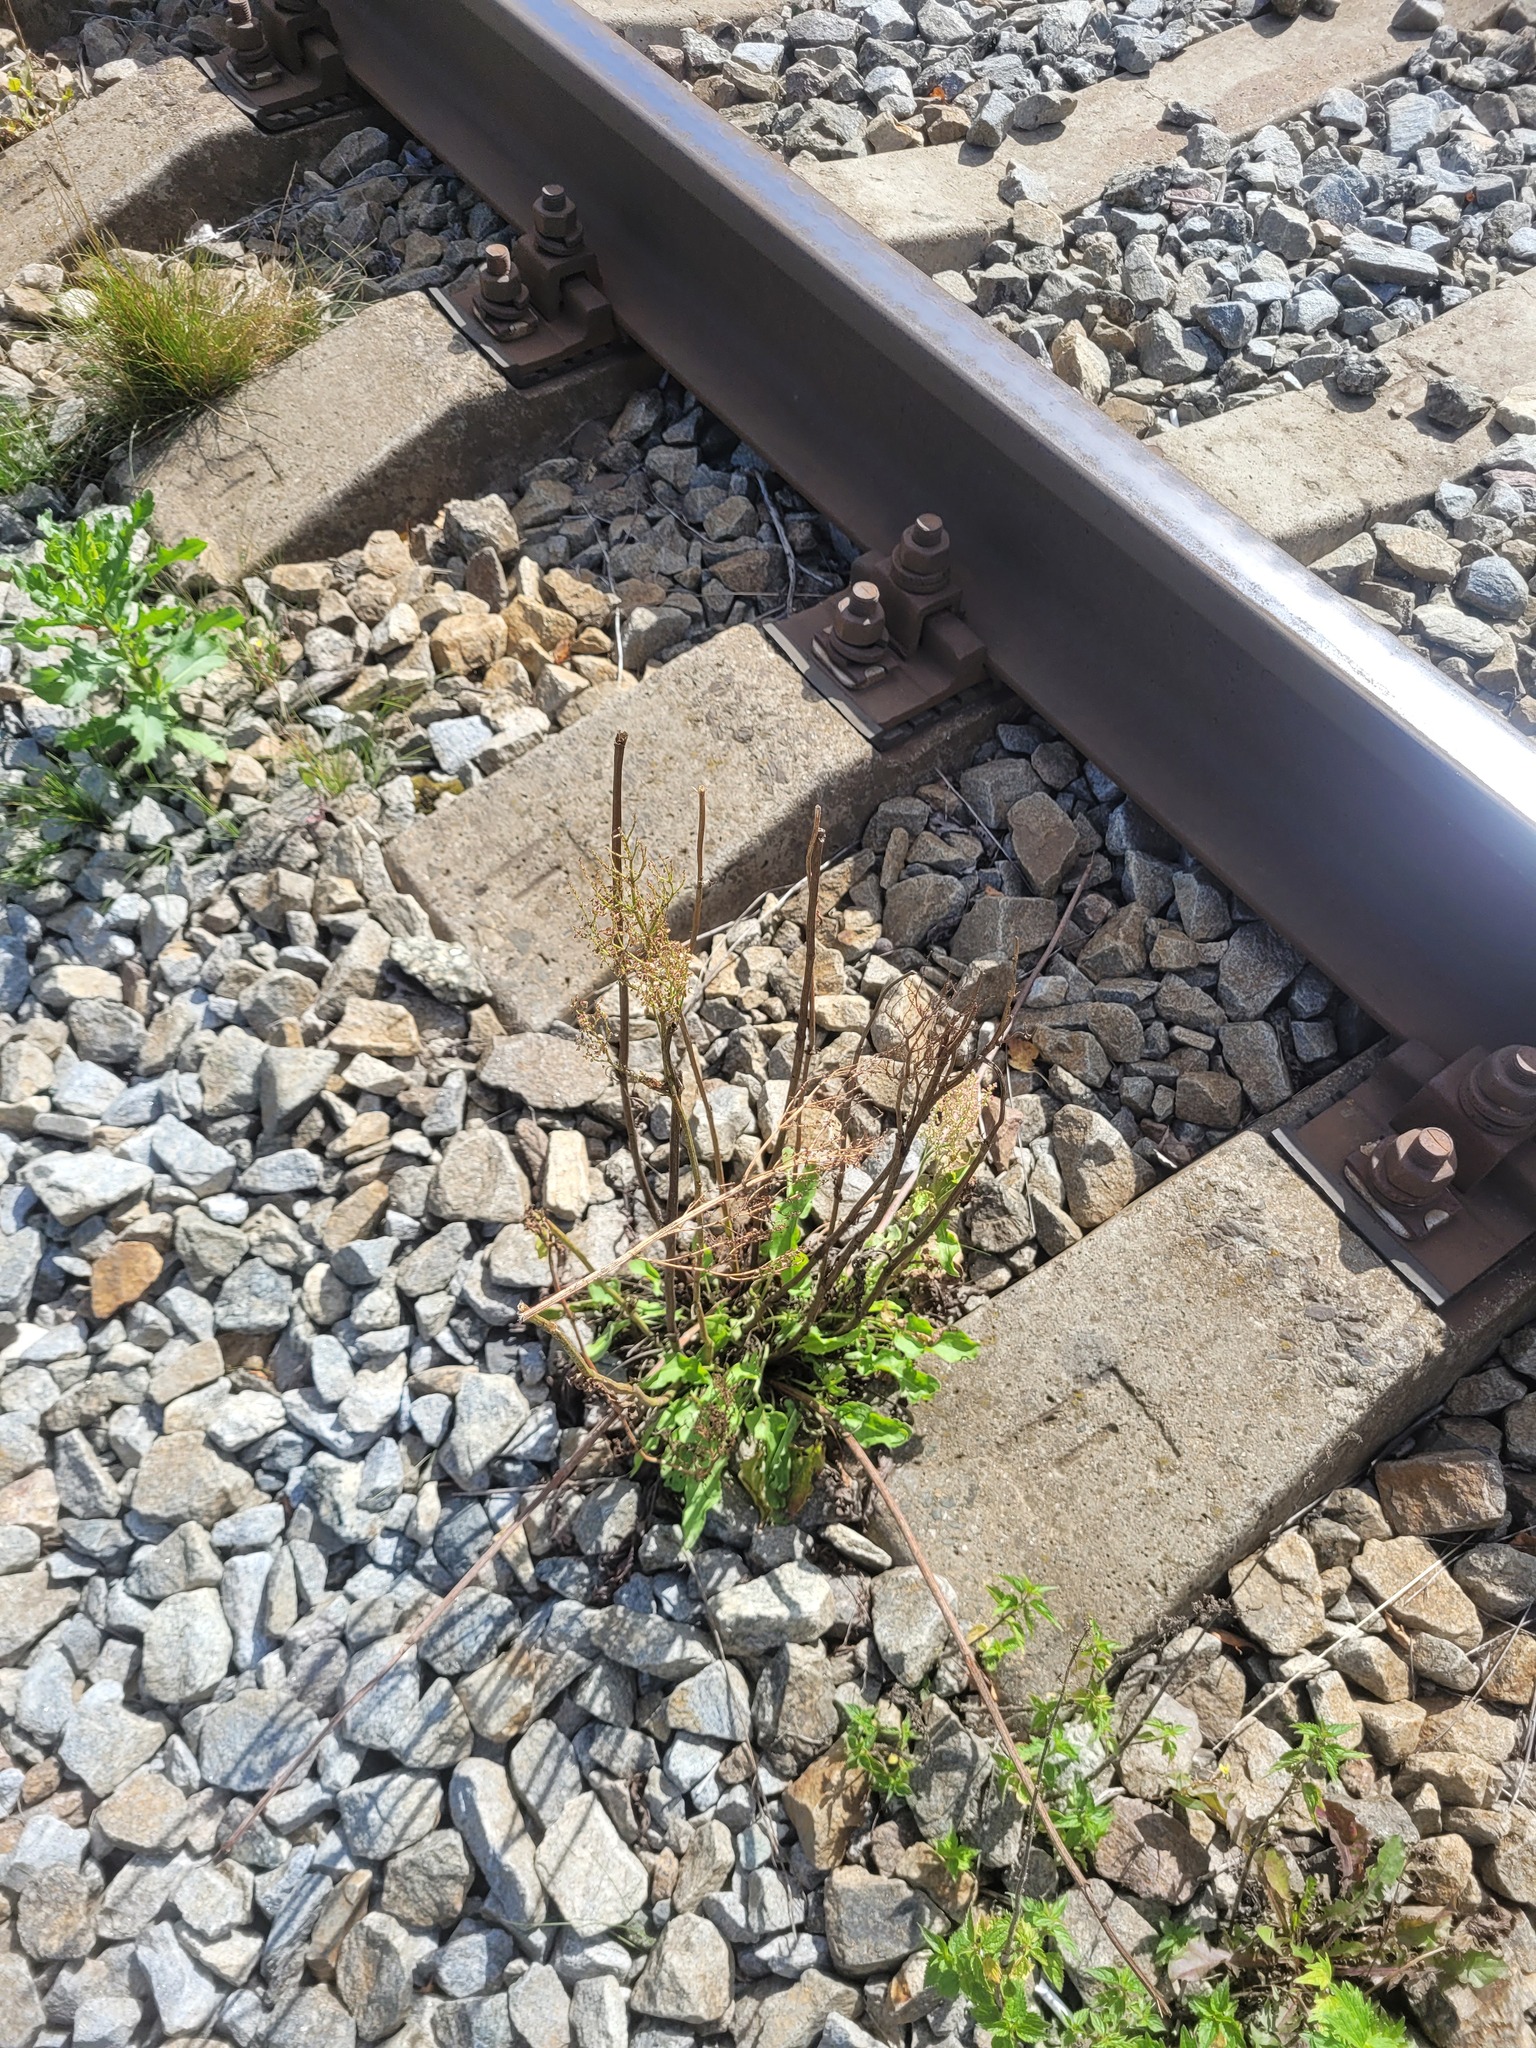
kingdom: Plantae
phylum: Tracheophyta
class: Magnoliopsida
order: Caryophyllales
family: Polygonaceae
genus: Rumex
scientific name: Rumex thyrsiflorus
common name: Garden sorrel
